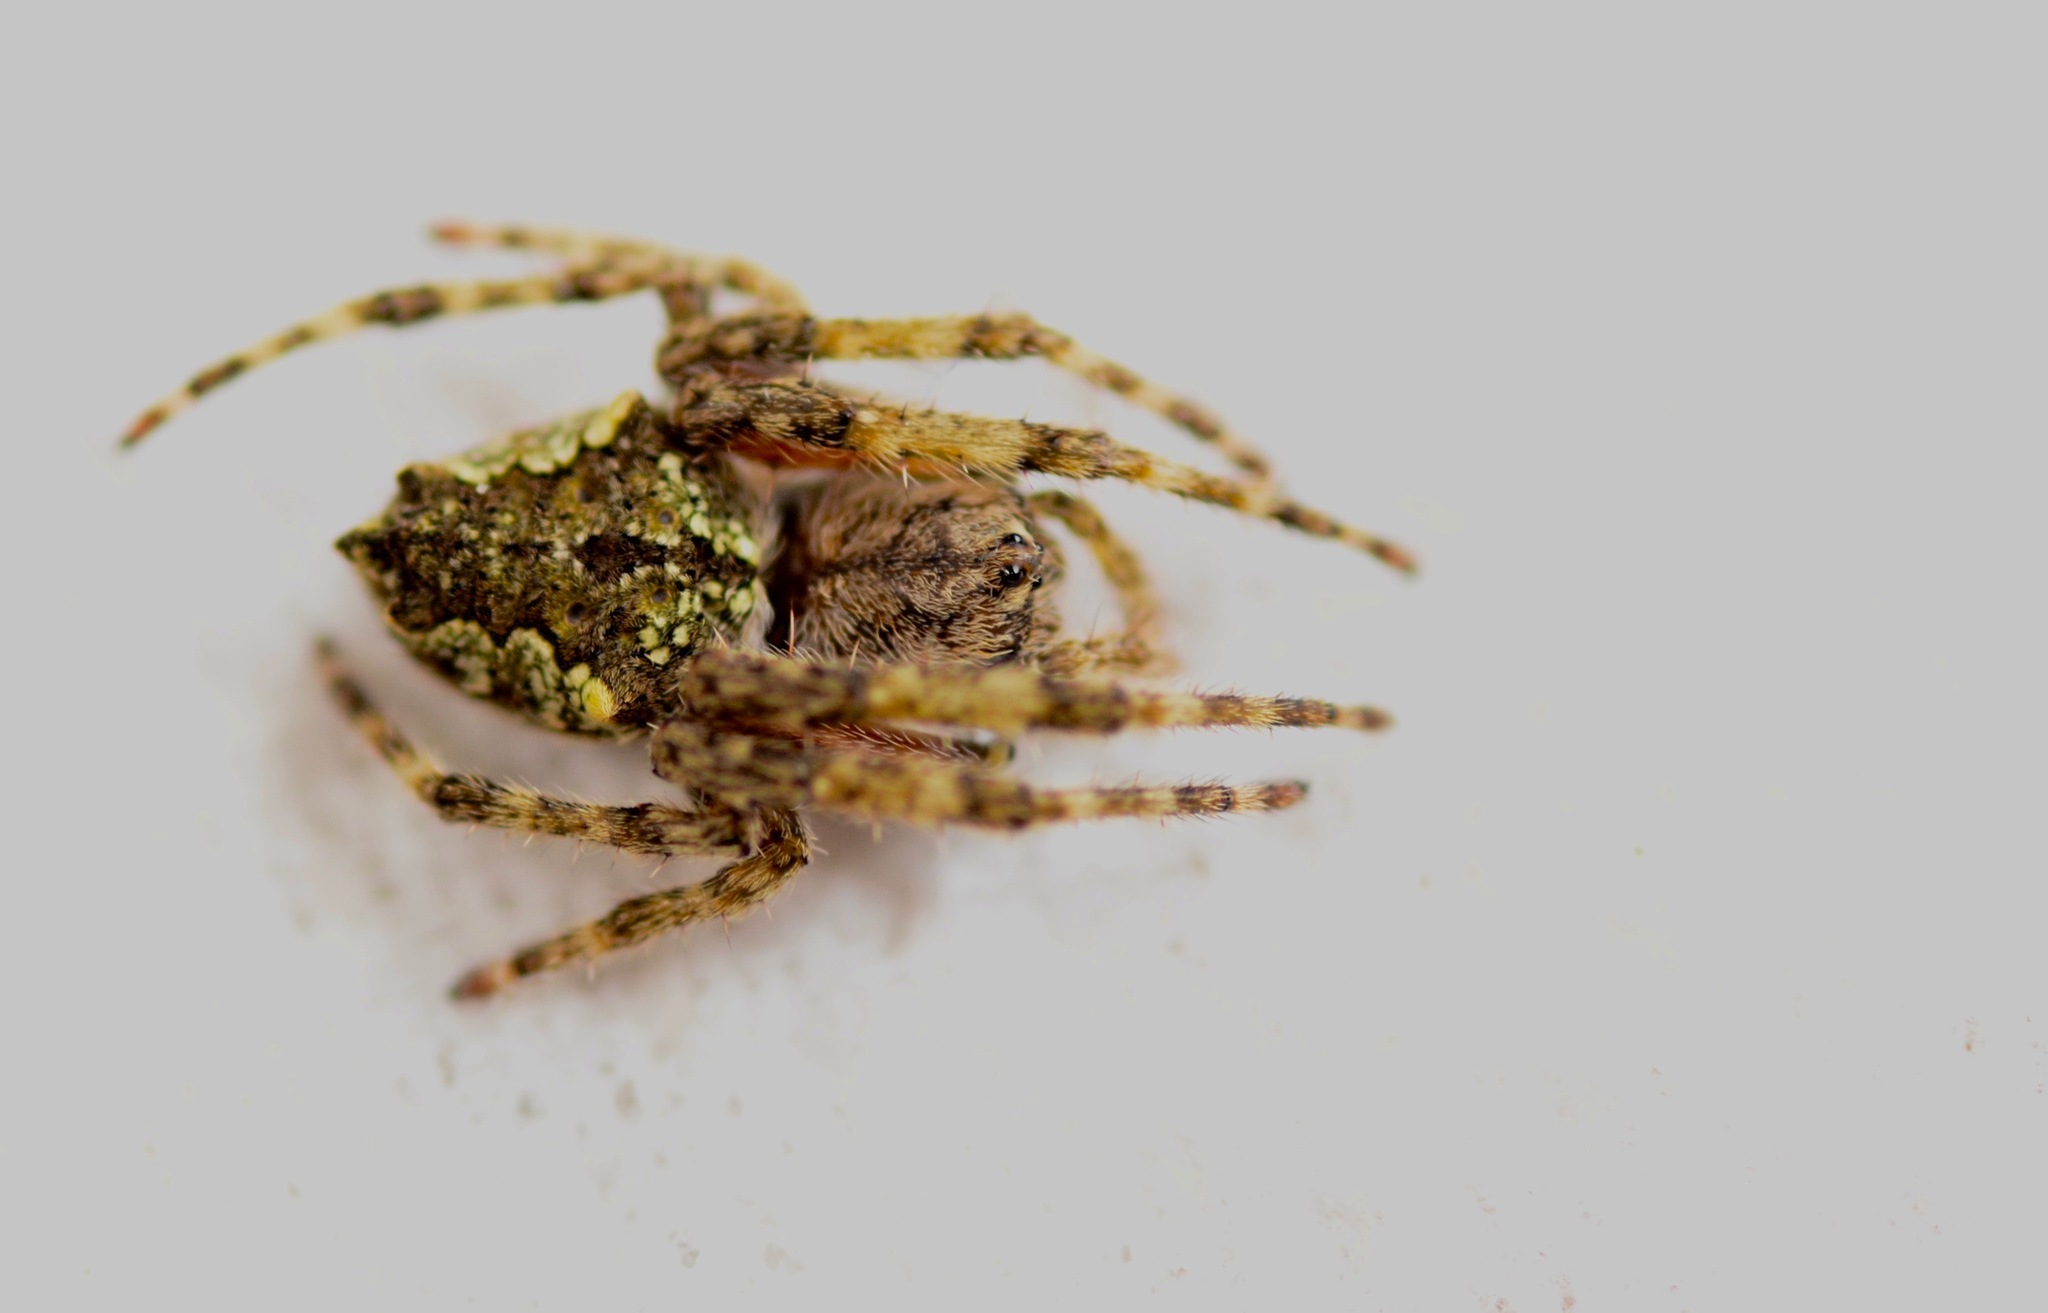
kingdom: Animalia
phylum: Arthropoda
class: Arachnida
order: Araneae
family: Araneidae
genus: Eriophora
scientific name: Eriophora pustulosa
